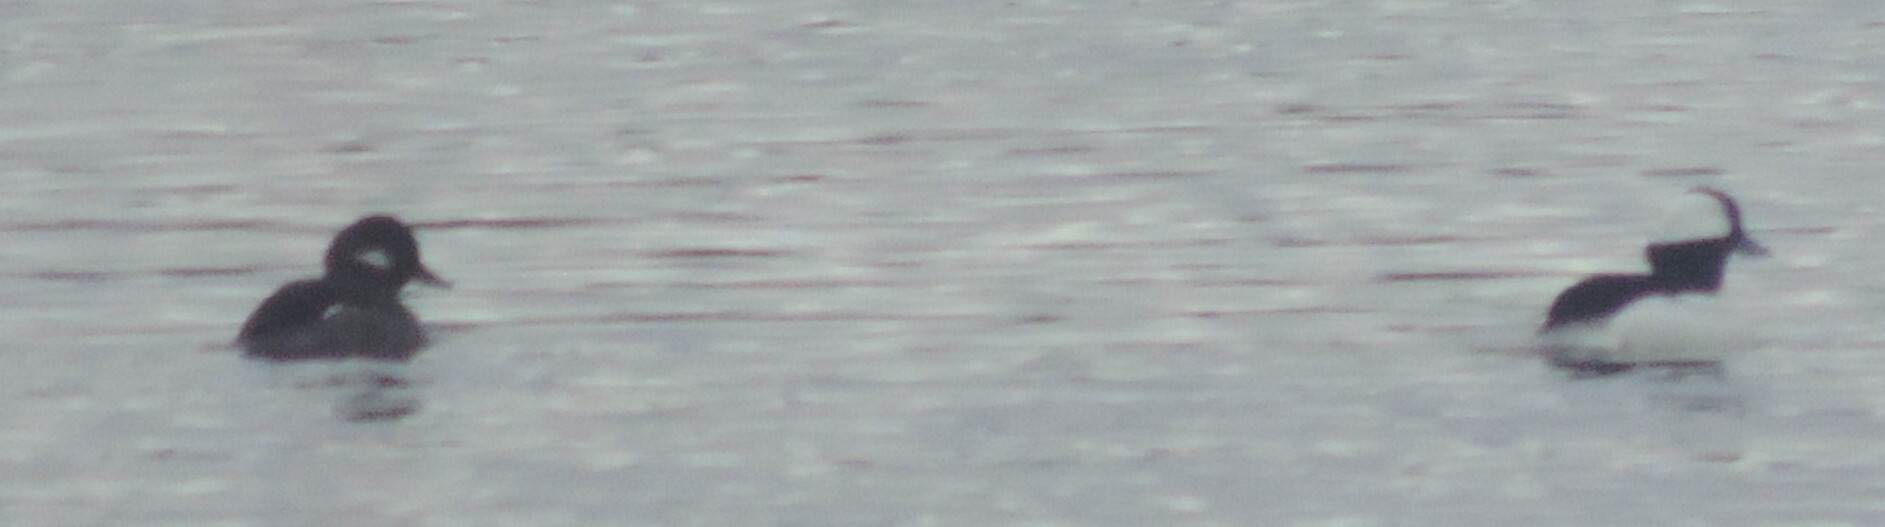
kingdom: Animalia
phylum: Chordata
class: Aves
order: Anseriformes
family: Anatidae
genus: Bucephala
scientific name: Bucephala albeola
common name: Bufflehead
